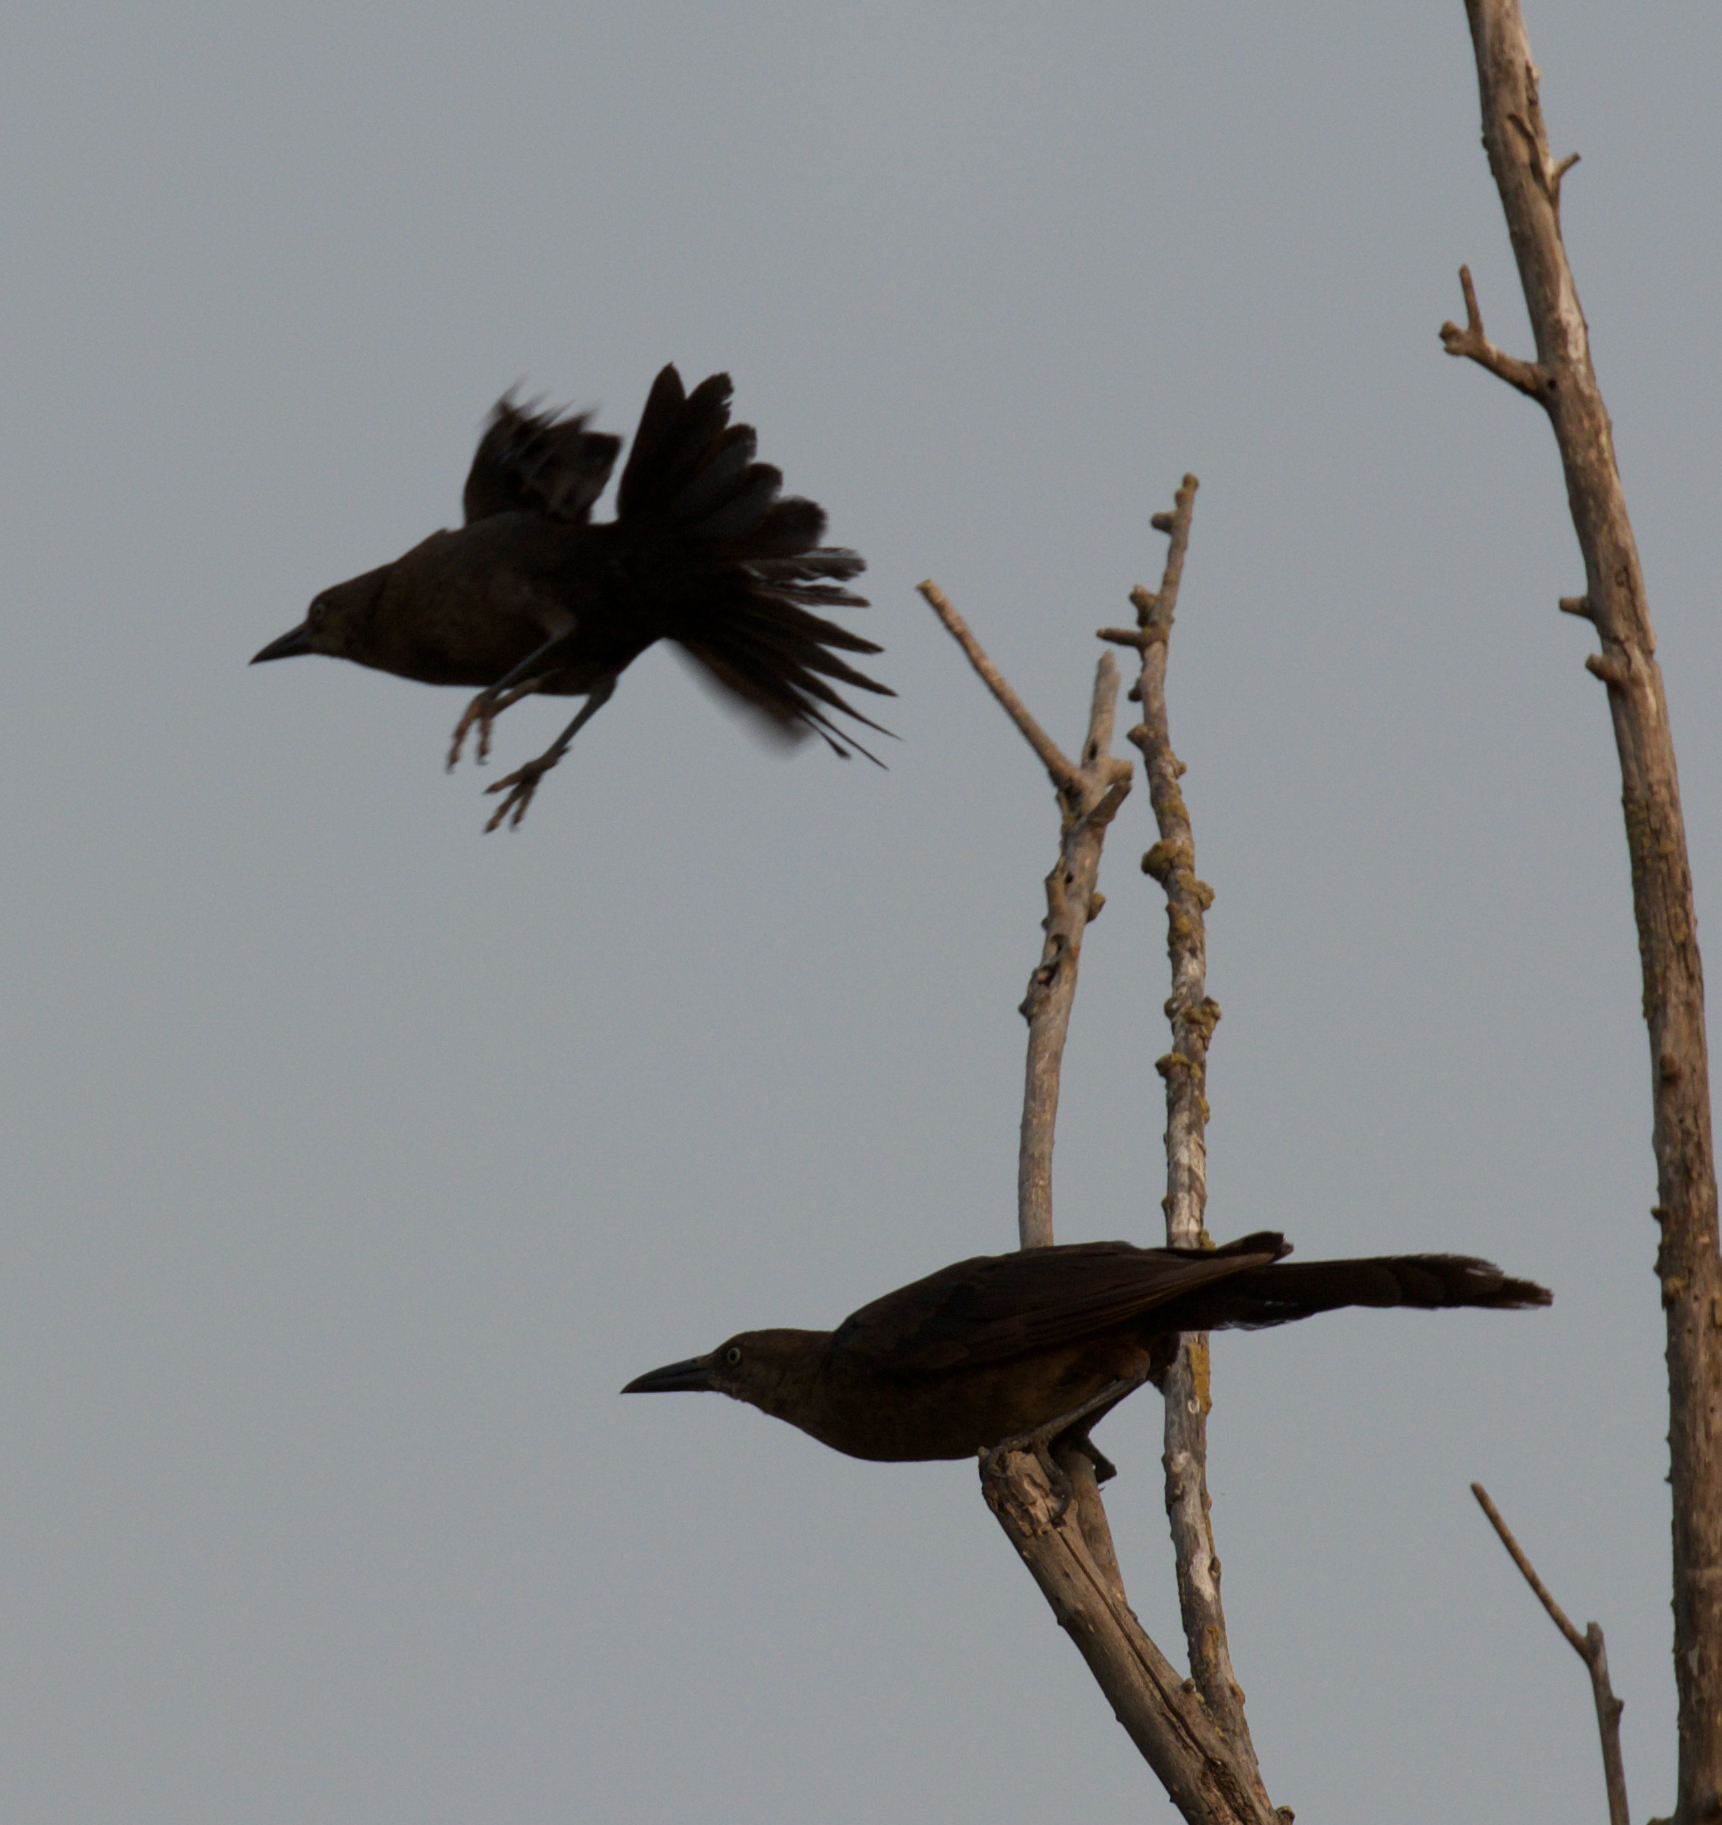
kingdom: Animalia
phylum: Chordata
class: Aves
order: Passeriformes
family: Icteridae
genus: Quiscalus
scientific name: Quiscalus mexicanus
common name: Great-tailed grackle
